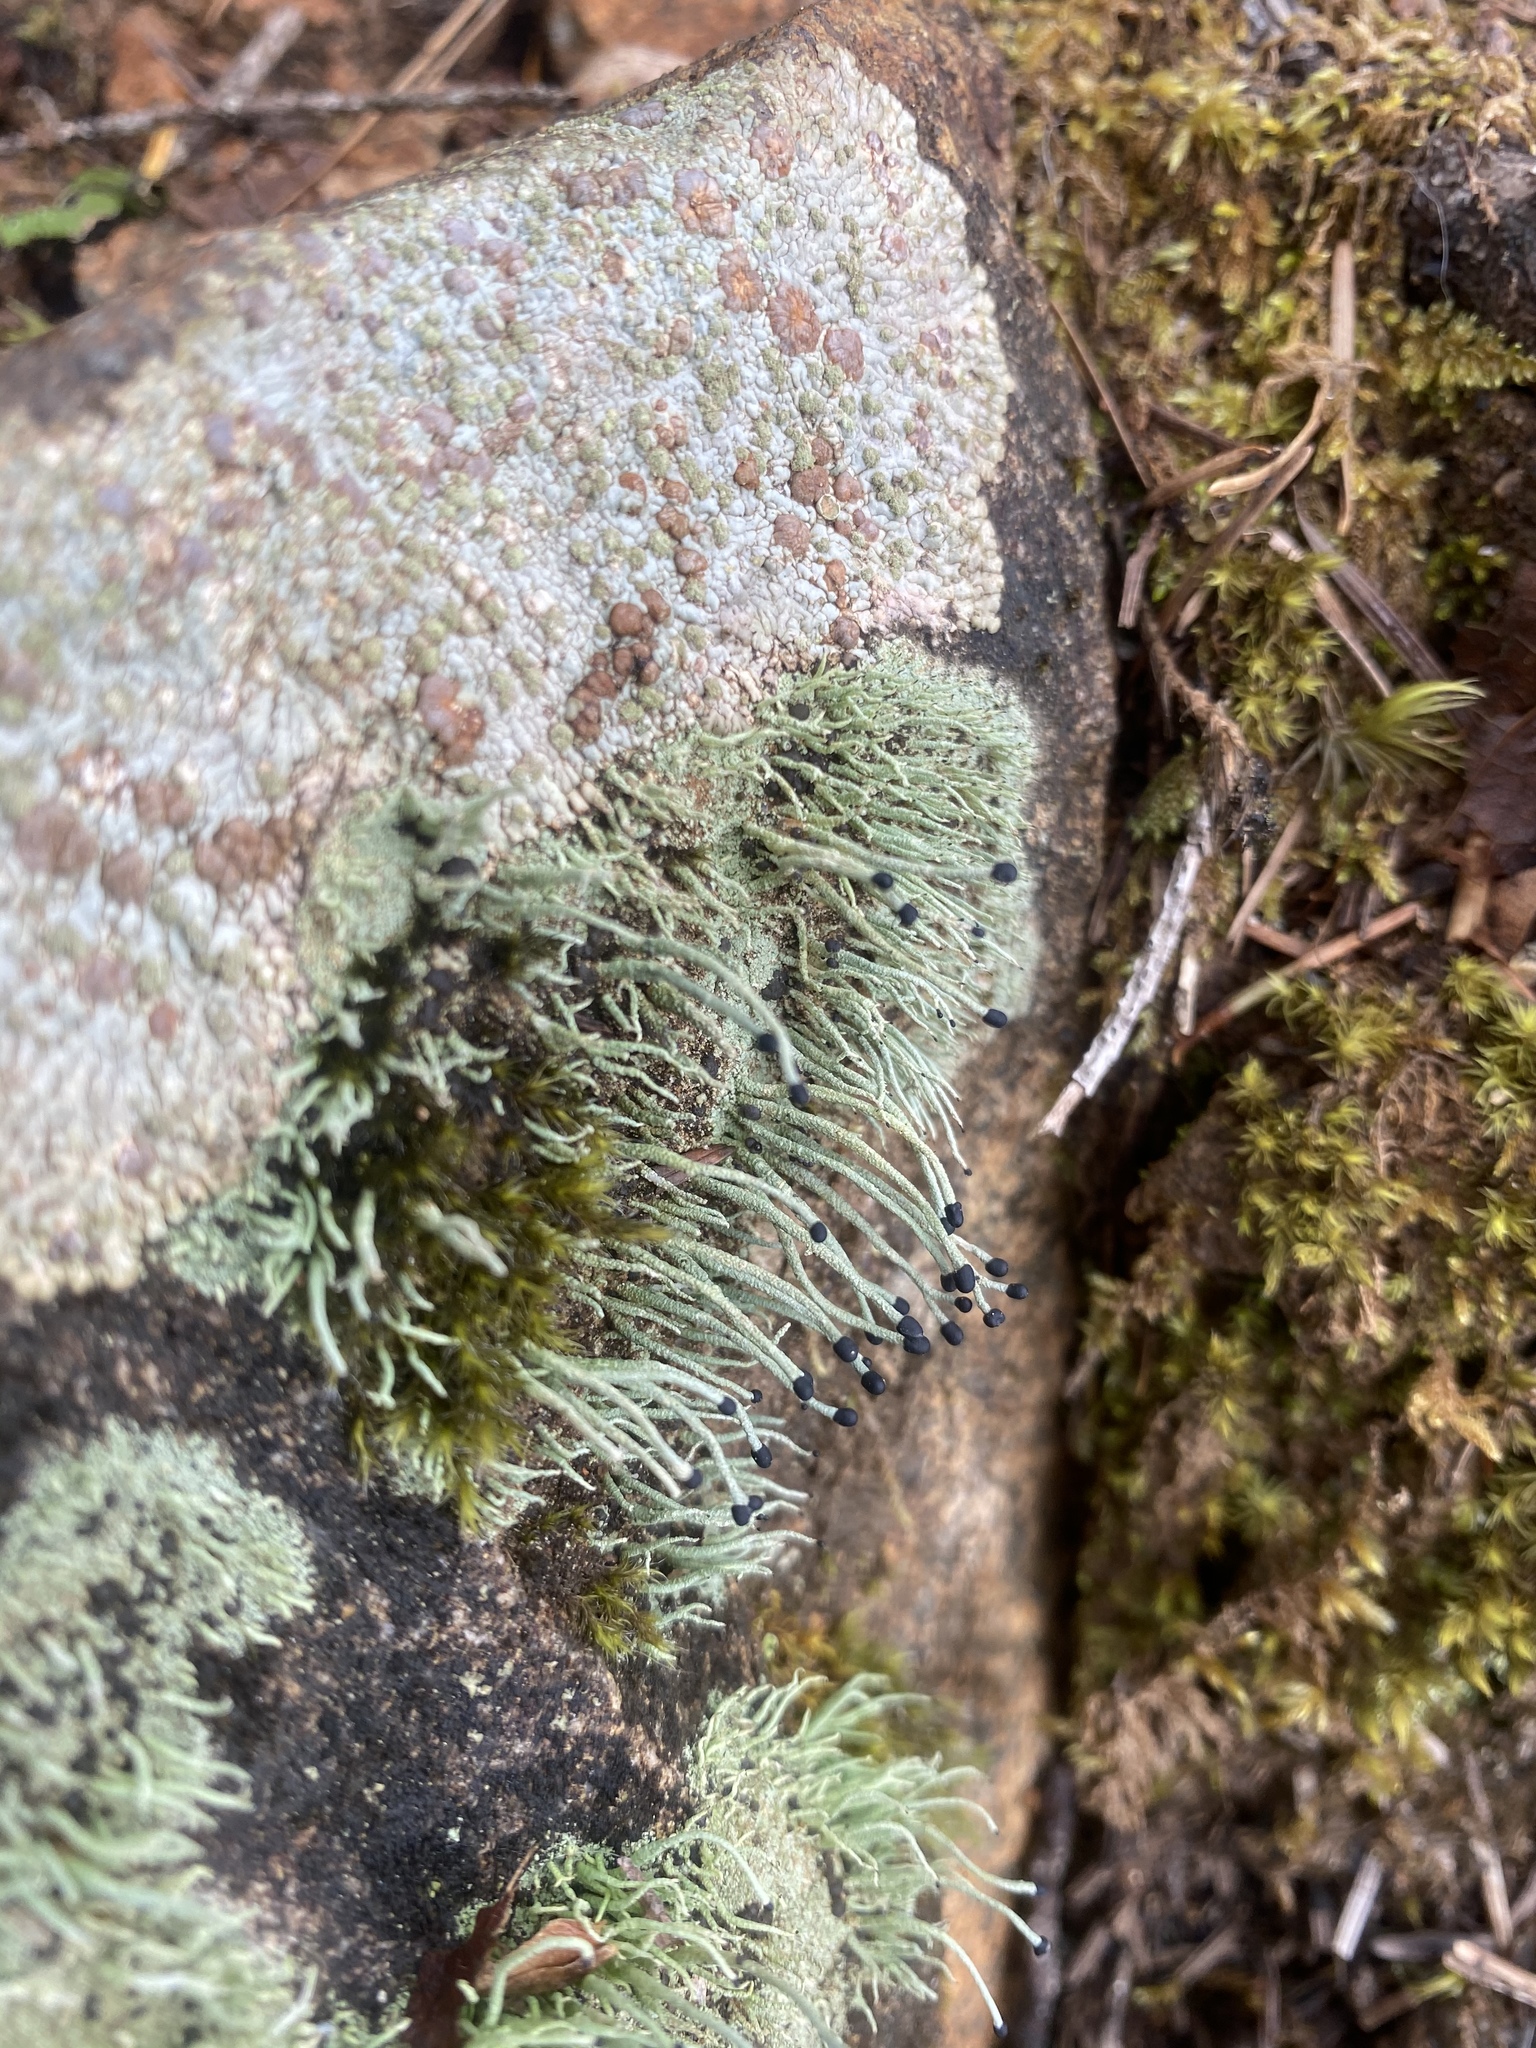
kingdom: Fungi
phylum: Ascomycota
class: Lecanoromycetes
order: Lecanorales
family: Cladoniaceae
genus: Pilophorus
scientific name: Pilophorus acicularis
